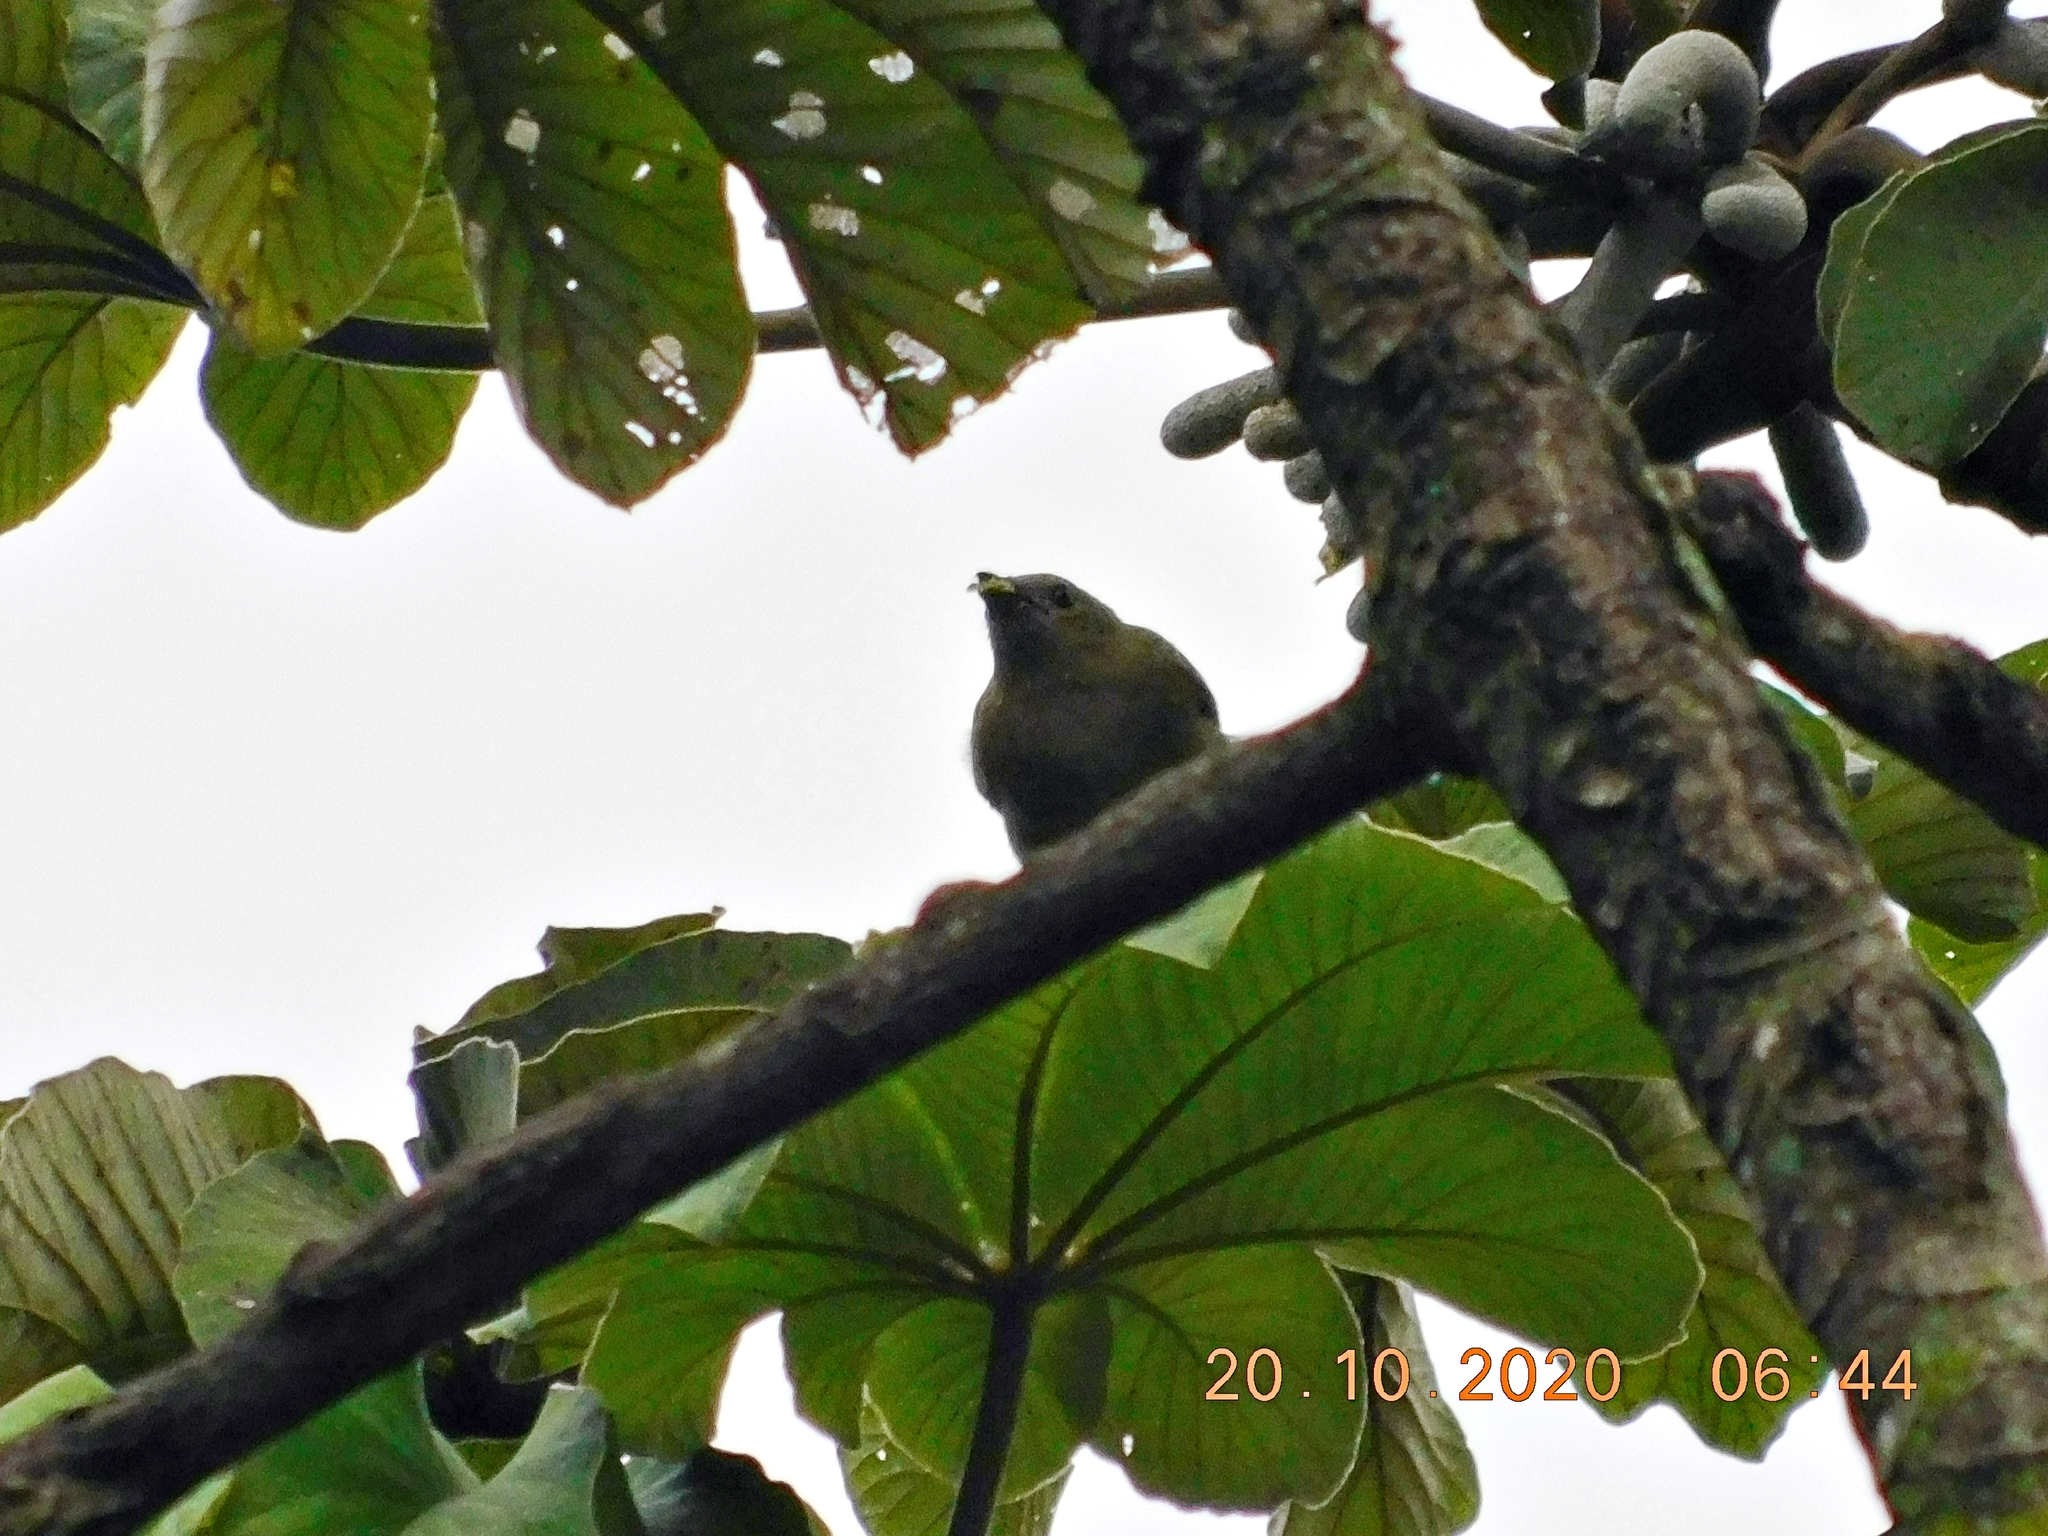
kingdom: Animalia
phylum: Chordata
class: Aves
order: Passeriformes
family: Thraupidae
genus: Thraupis
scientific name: Thraupis palmarum
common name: Palm tanager
